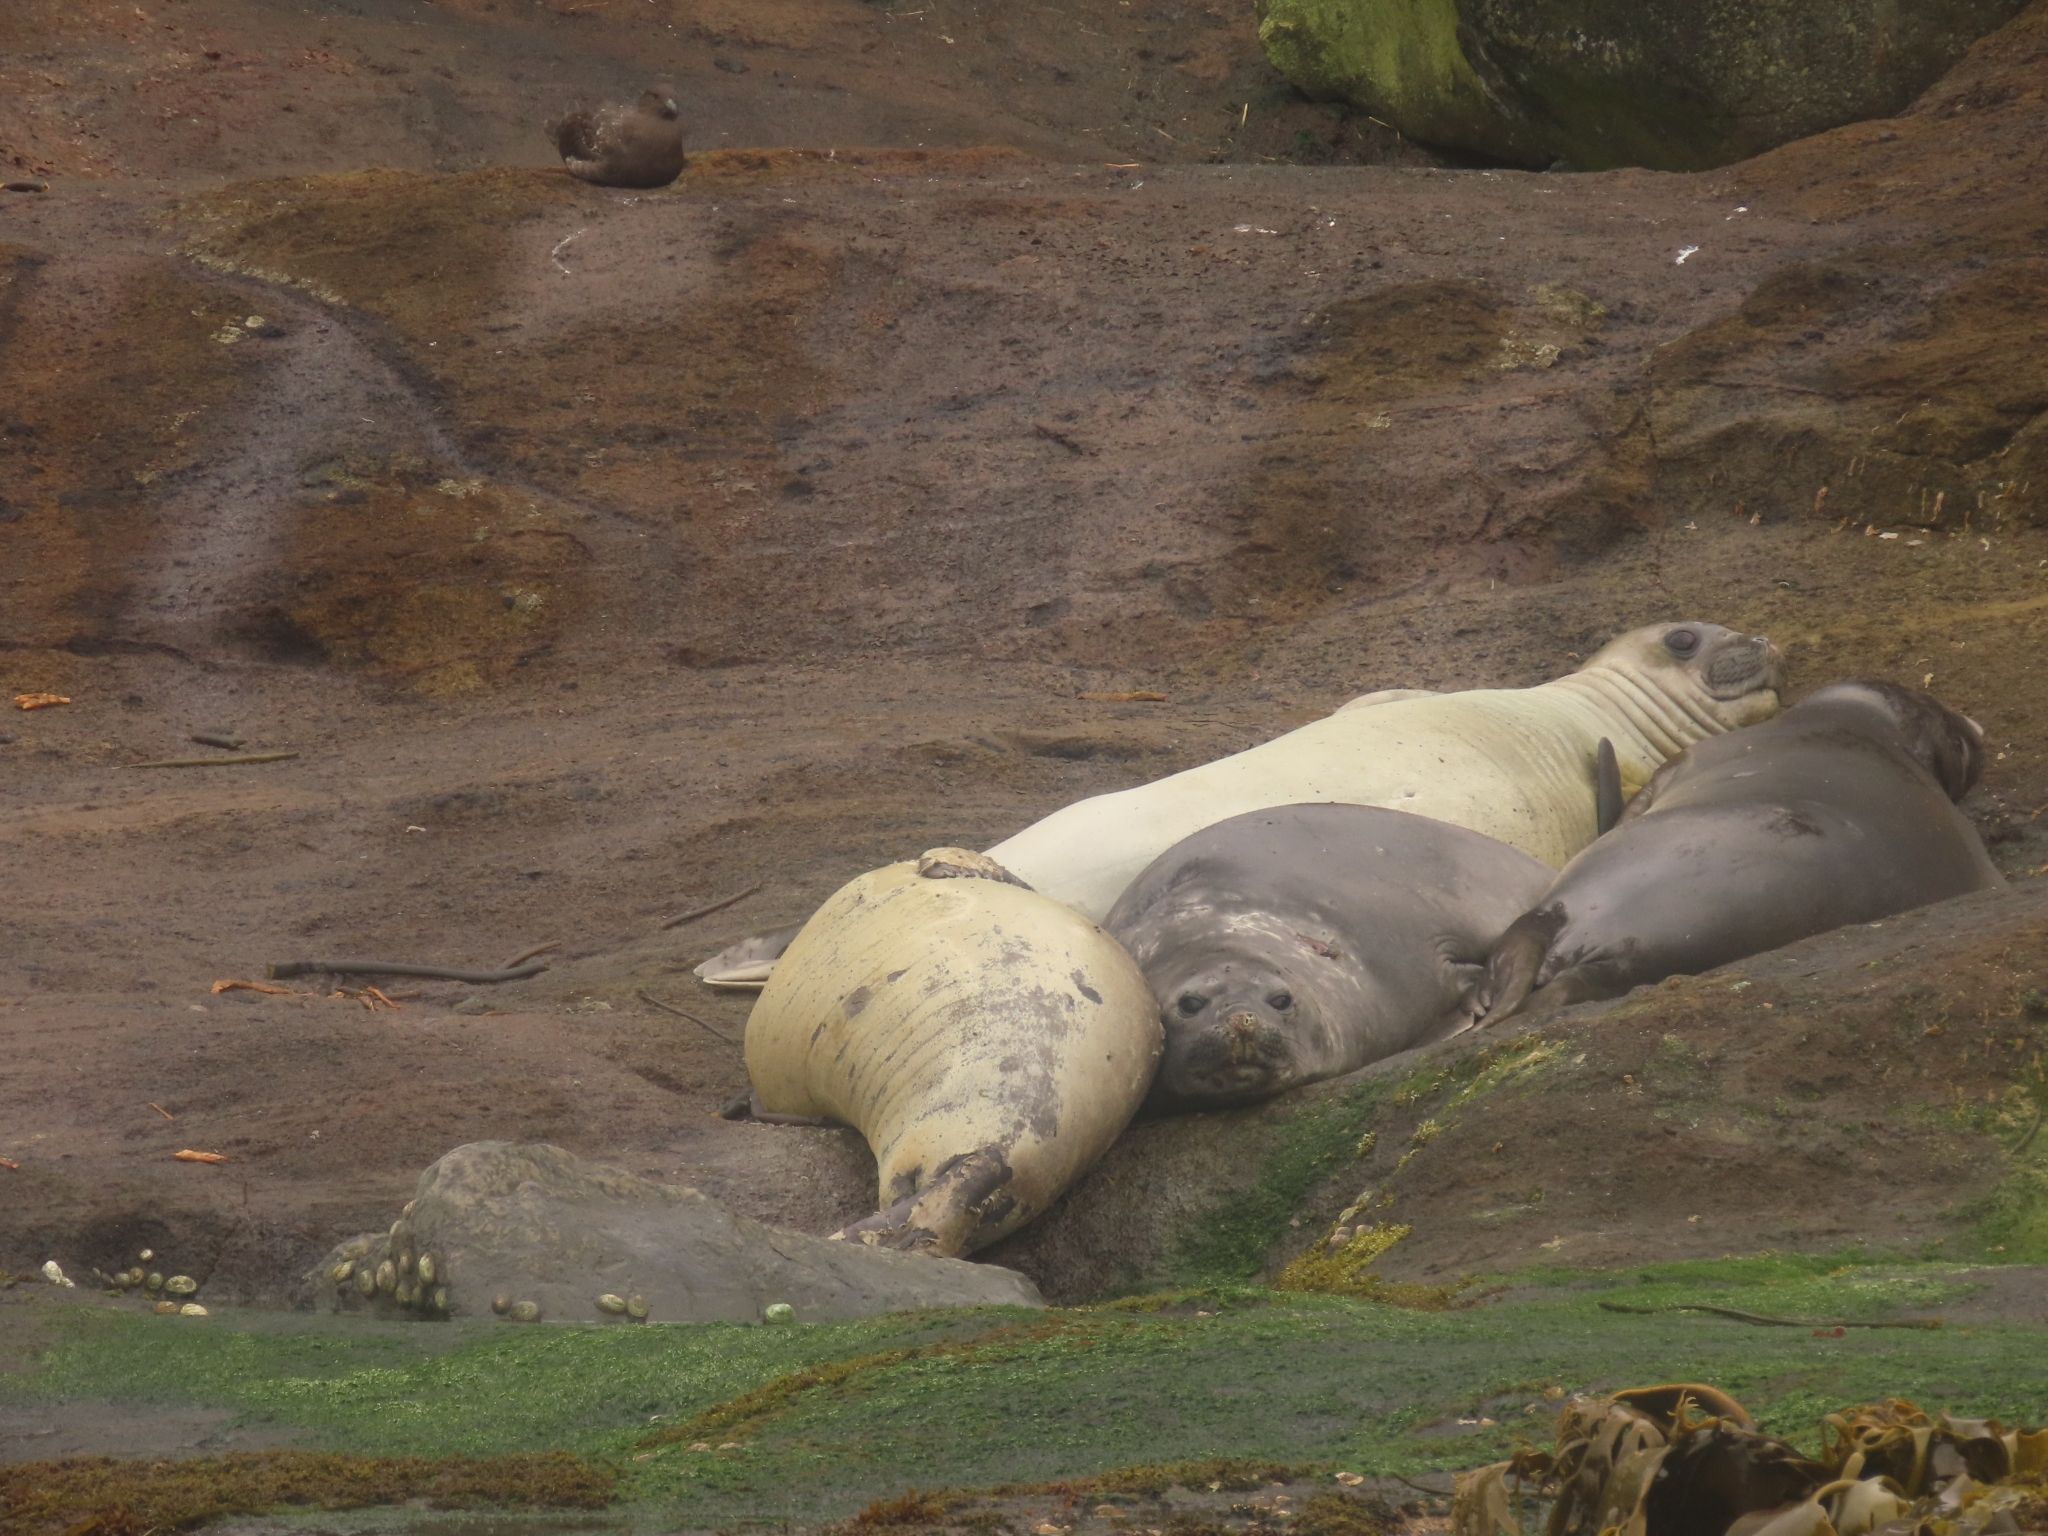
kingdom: Animalia
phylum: Chordata
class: Mammalia
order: Carnivora
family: Phocidae
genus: Mirounga
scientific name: Mirounga leonina
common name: Southern elephant seal
